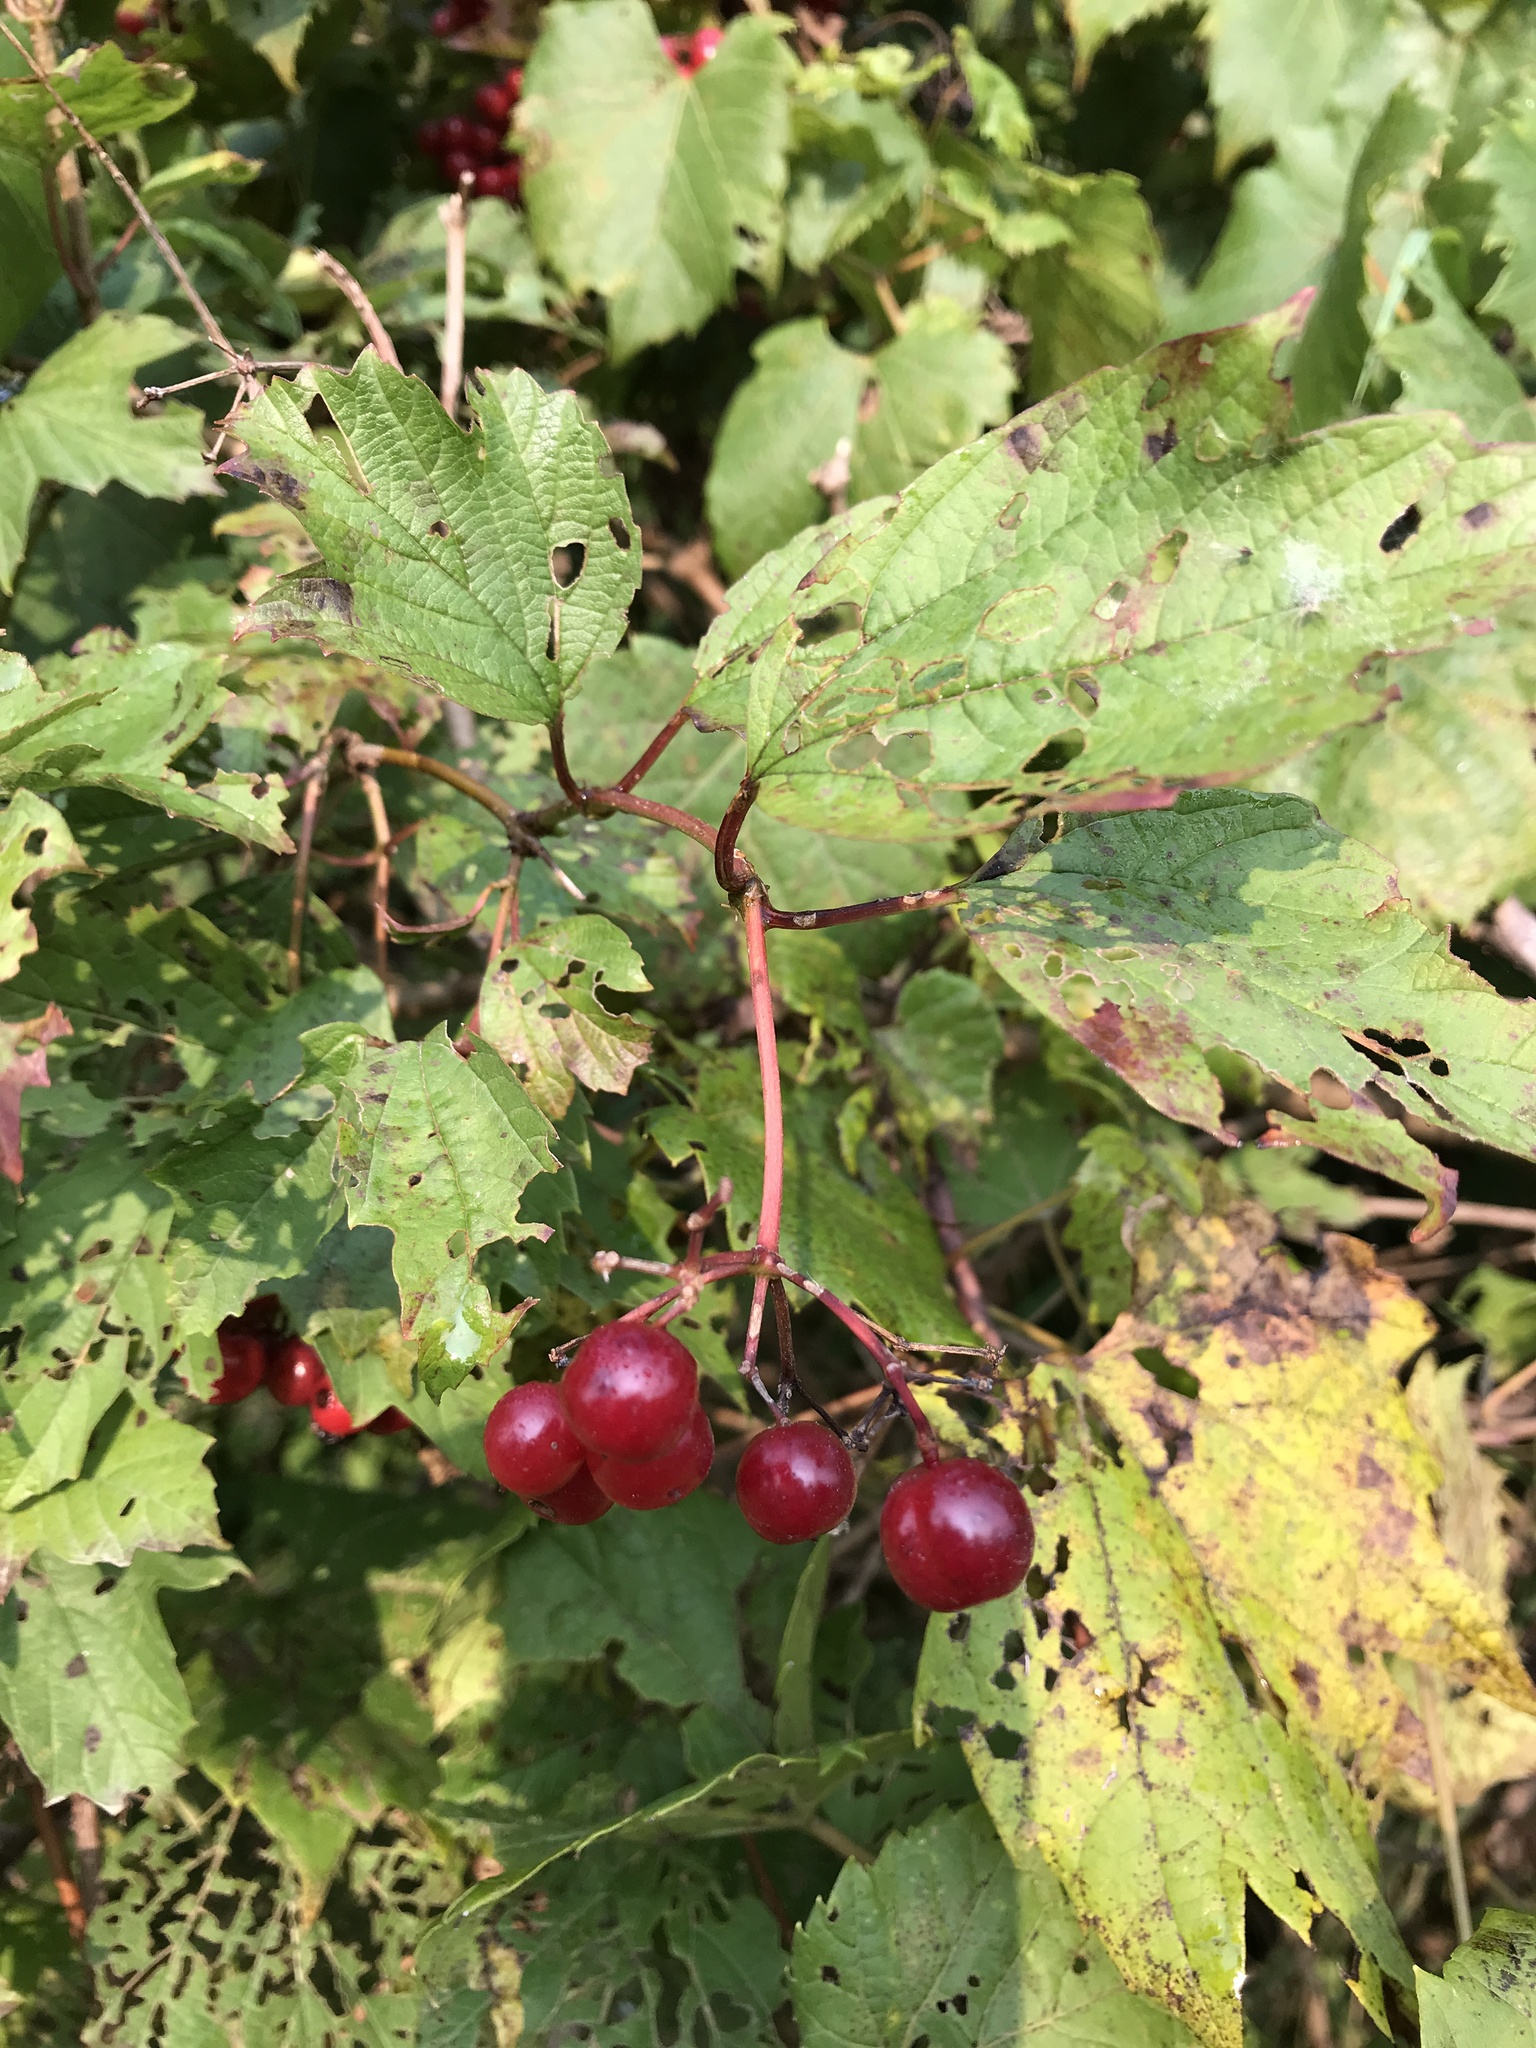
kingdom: Plantae
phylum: Tracheophyta
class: Magnoliopsida
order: Dipsacales
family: Viburnaceae
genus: Viburnum
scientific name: Viburnum opulus
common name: Guelder-rose
